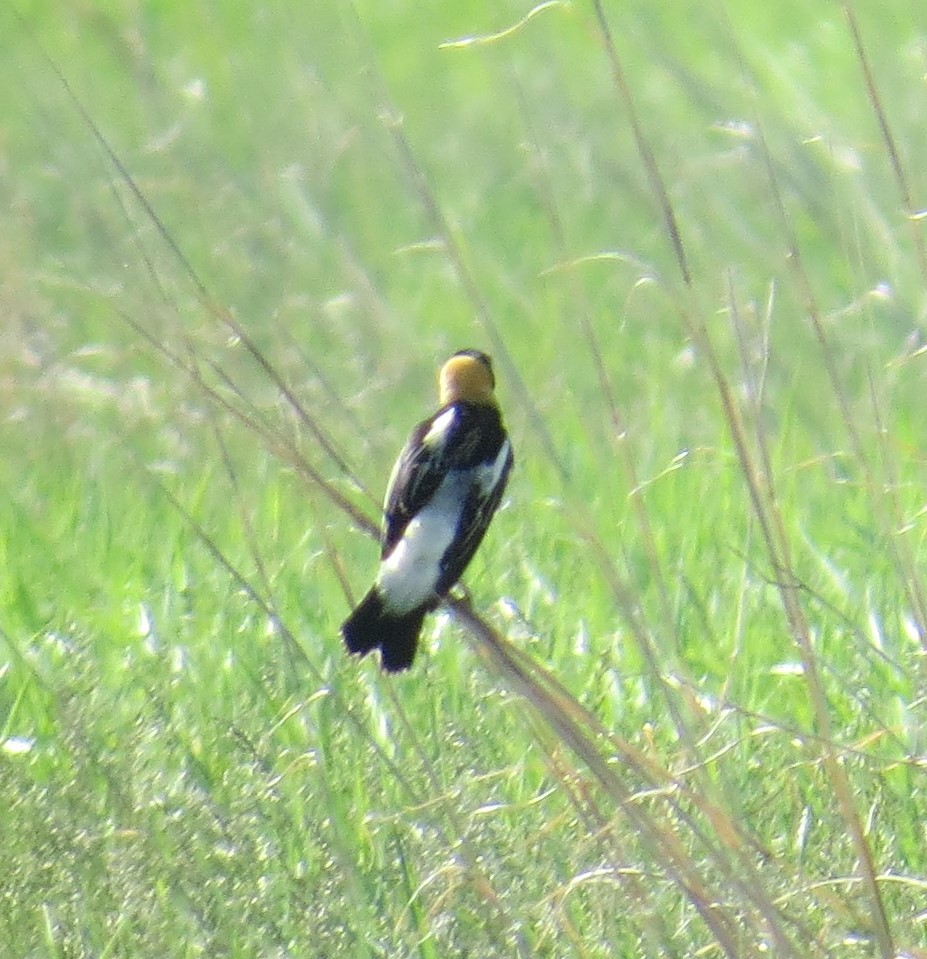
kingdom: Animalia
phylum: Chordata
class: Aves
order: Passeriformes
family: Icteridae
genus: Dolichonyx
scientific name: Dolichonyx oryzivorus
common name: Bobolink
